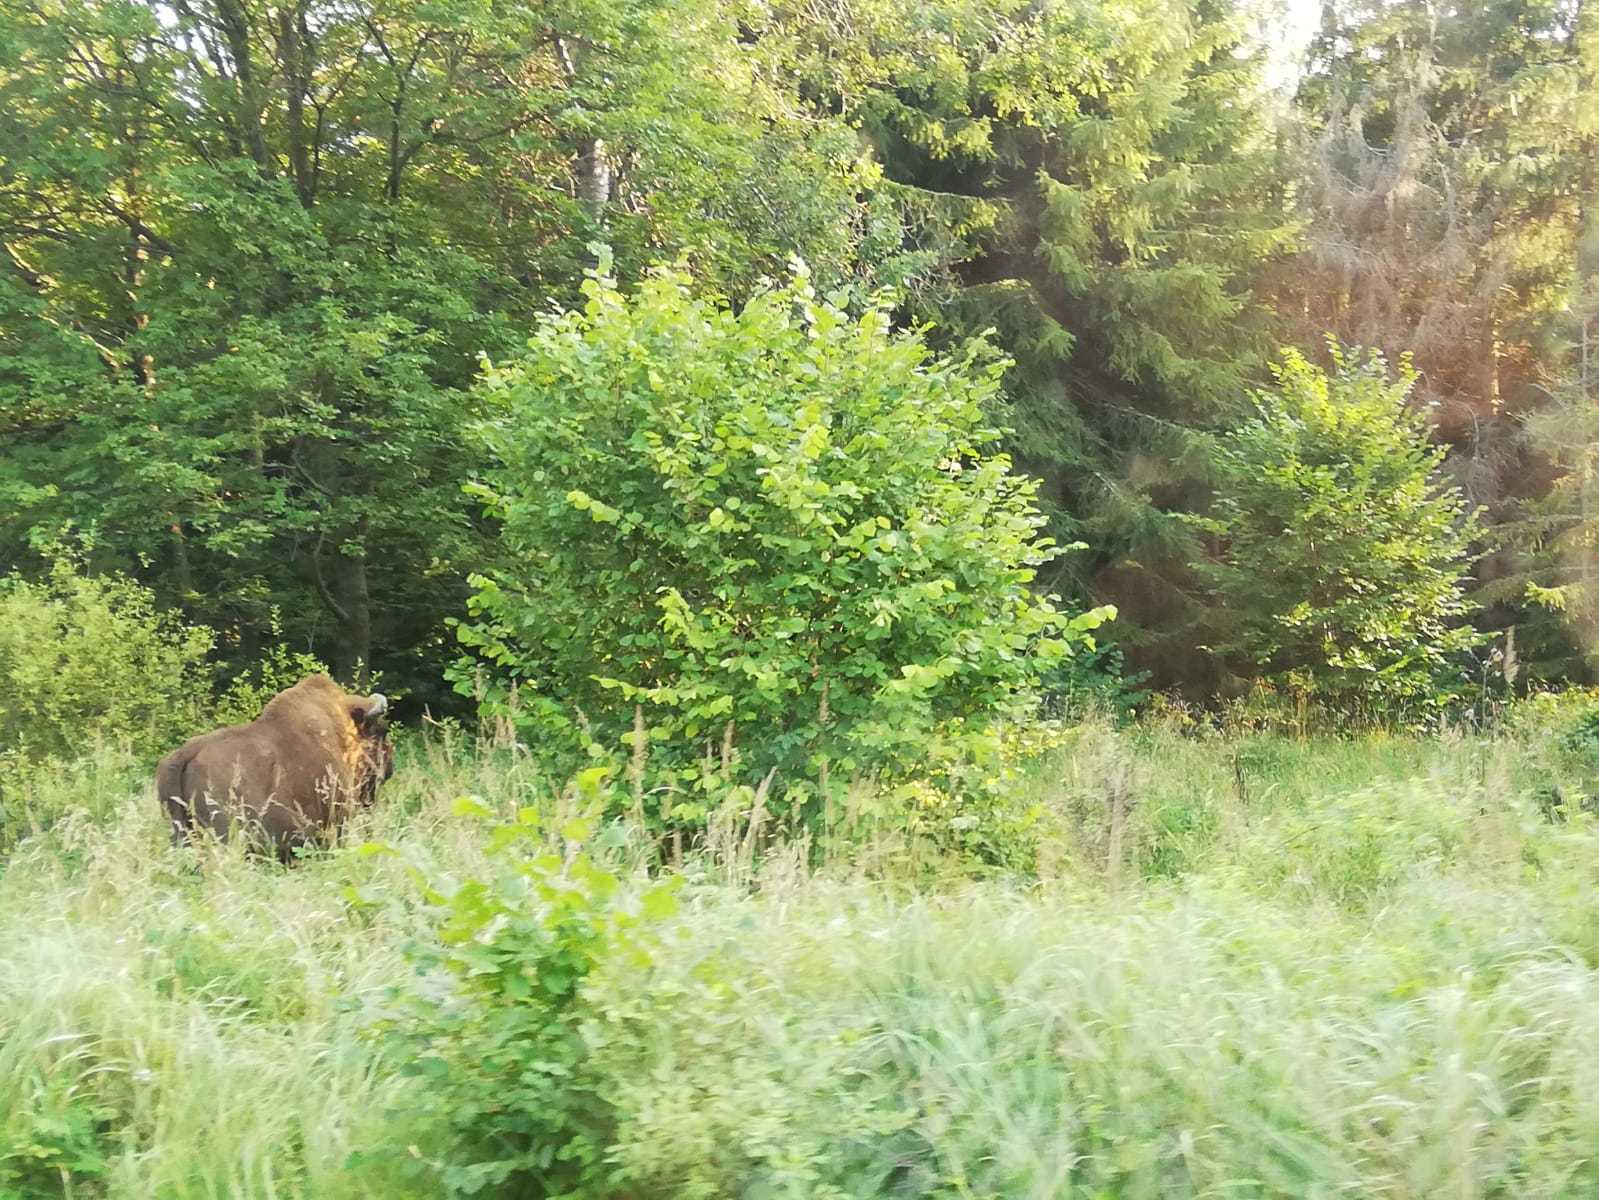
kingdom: Animalia
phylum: Chordata
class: Mammalia
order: Artiodactyla
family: Bovidae
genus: Bison
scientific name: Bison bonasus
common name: European bison
